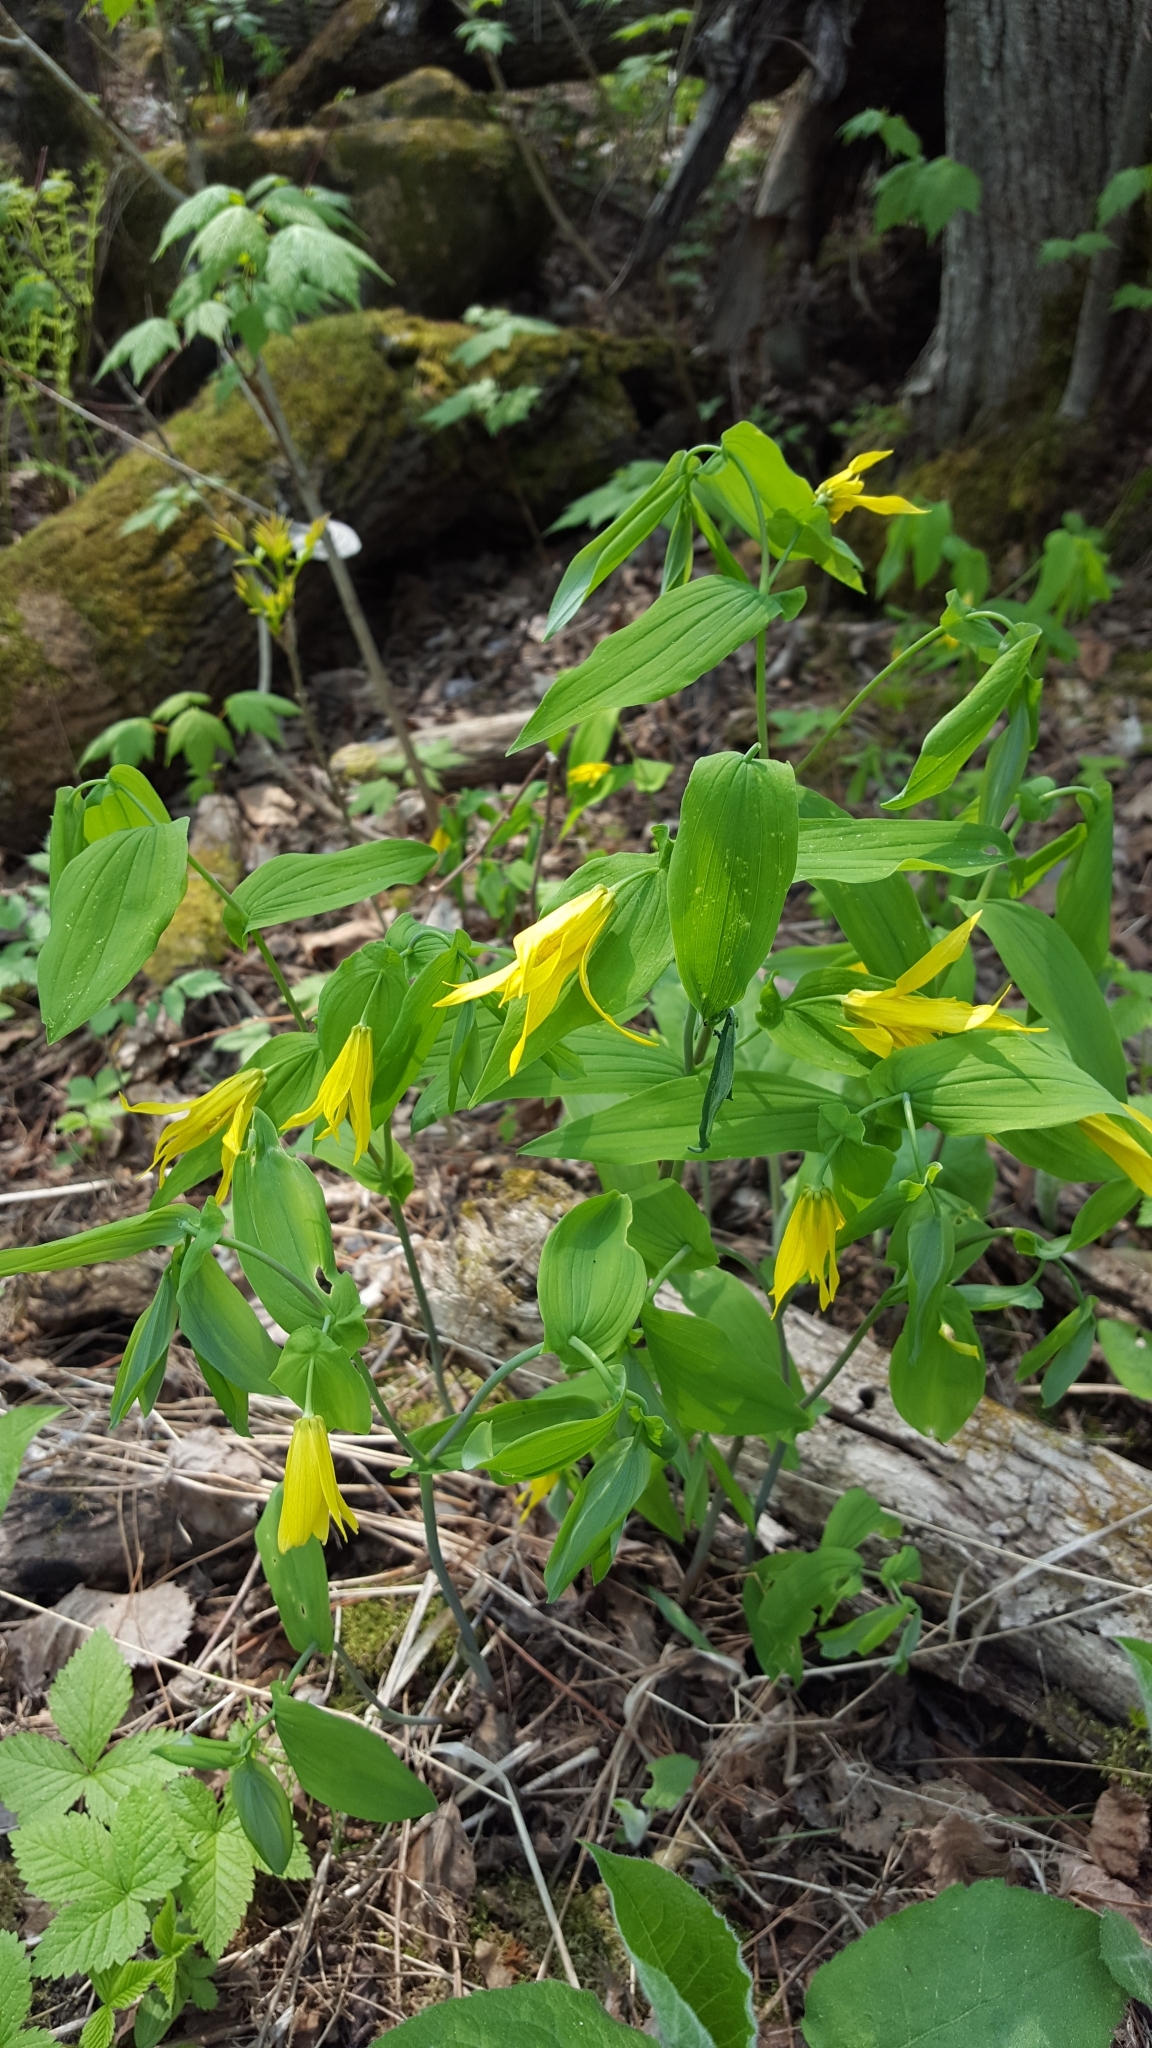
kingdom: Plantae
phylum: Tracheophyta
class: Liliopsida
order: Liliales
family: Colchicaceae
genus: Uvularia
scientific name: Uvularia grandiflora
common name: Bellwort
